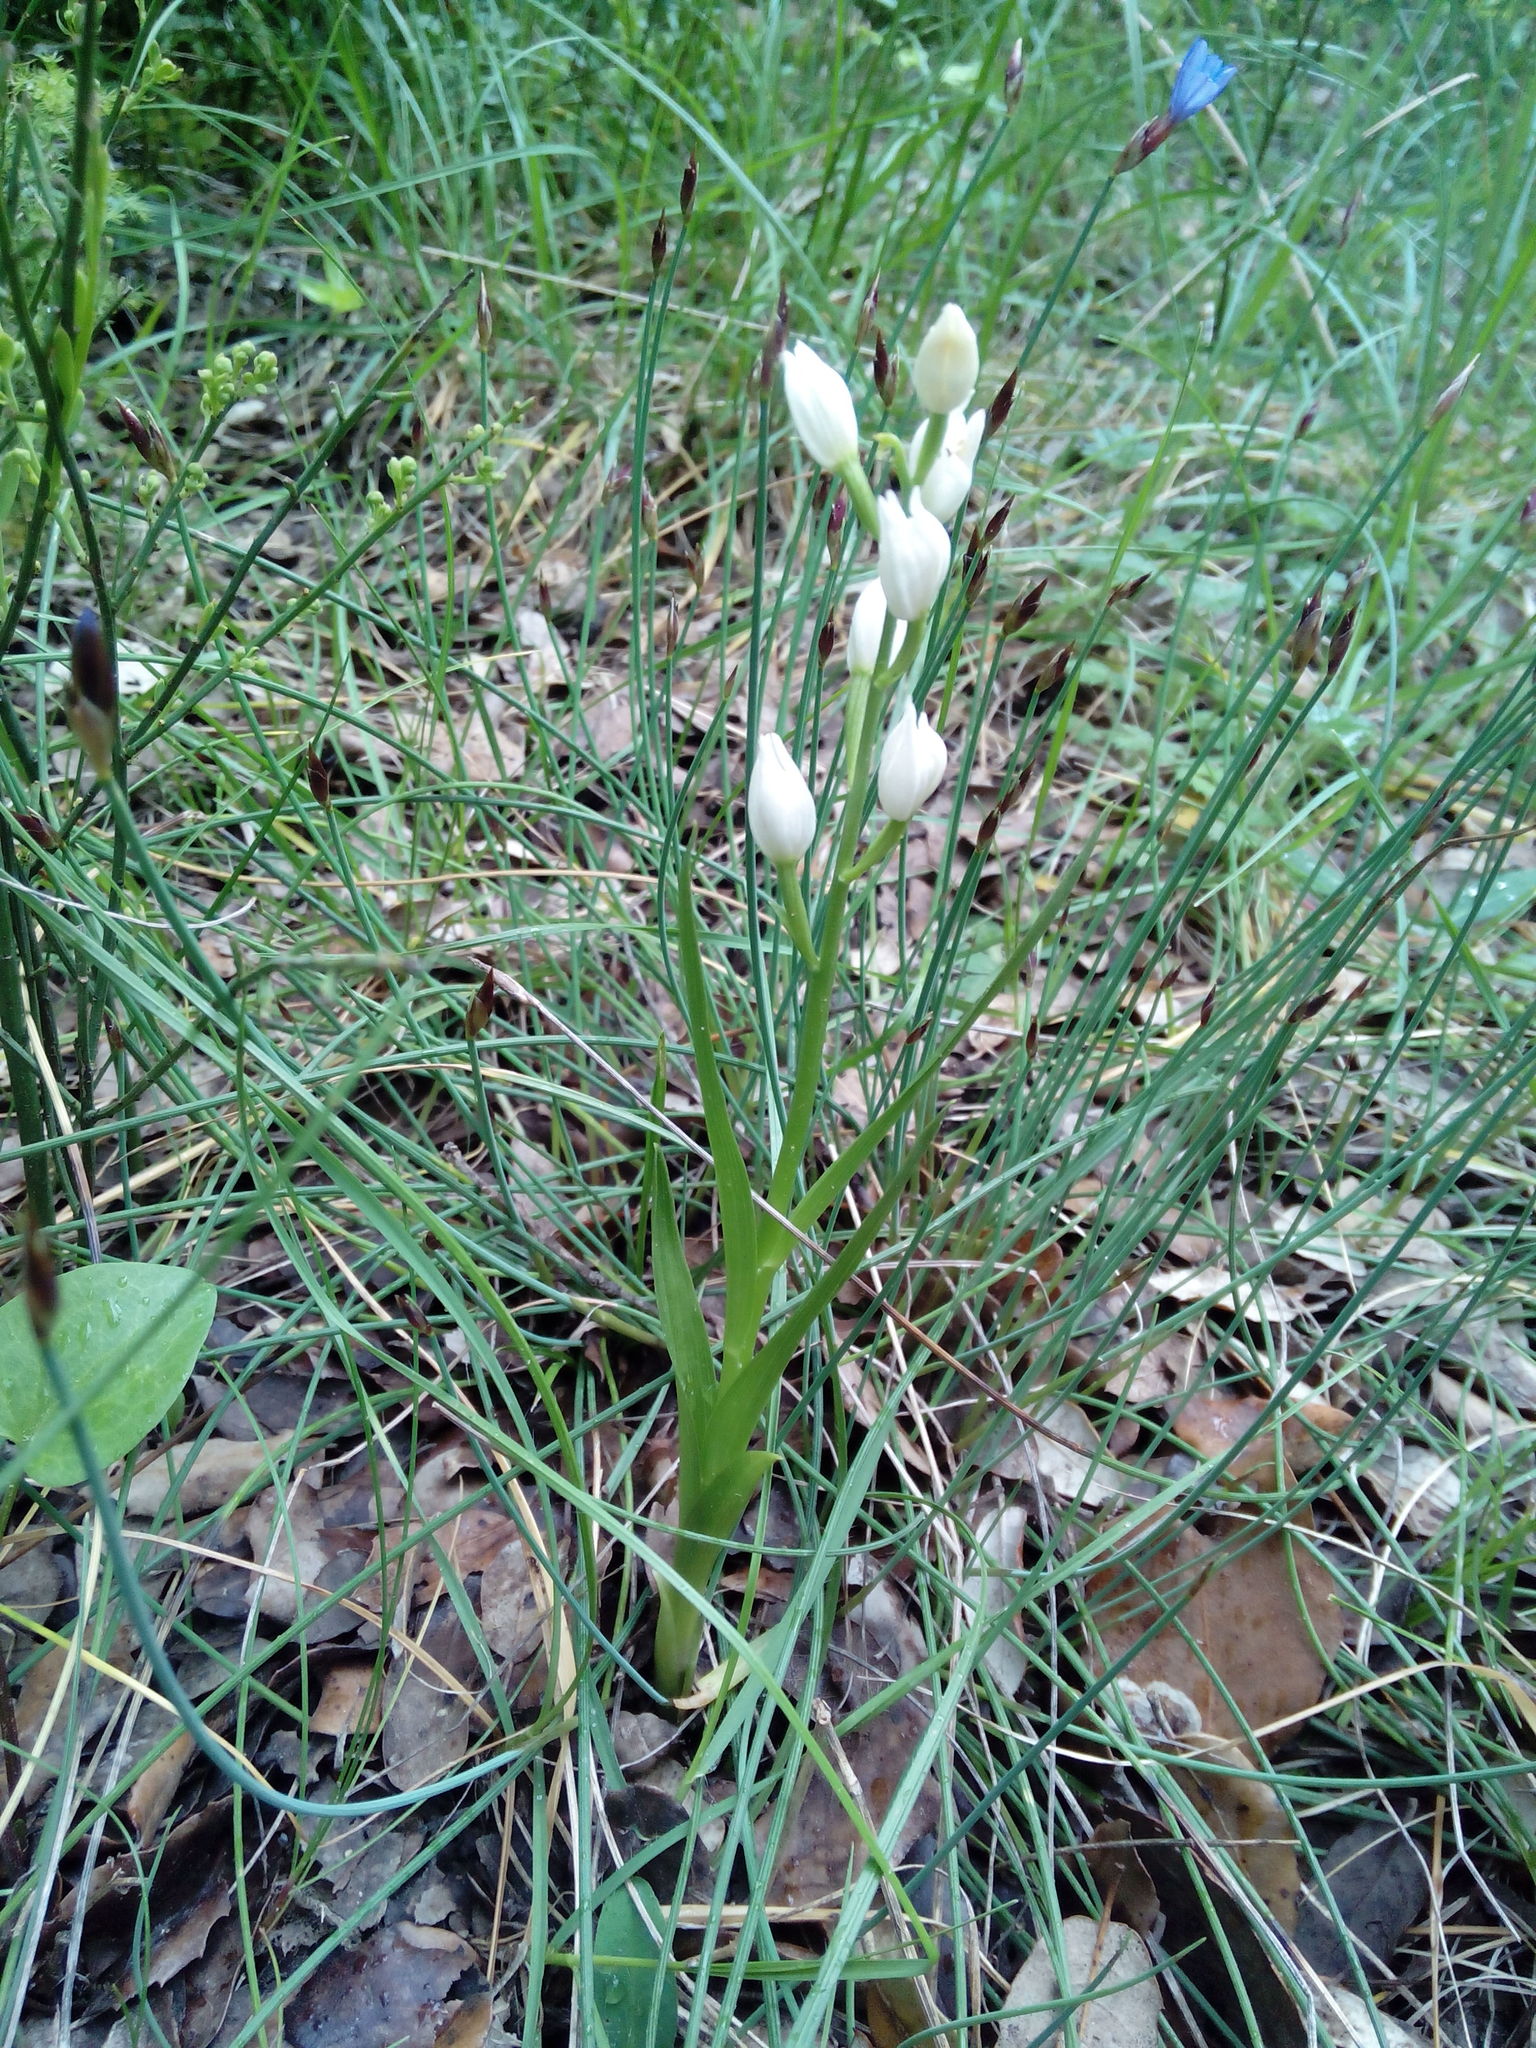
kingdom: Plantae
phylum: Tracheophyta
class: Liliopsida
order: Asparagales
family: Orchidaceae
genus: Cephalanthera
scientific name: Cephalanthera longifolia
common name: Narrow-leaved helleborine
